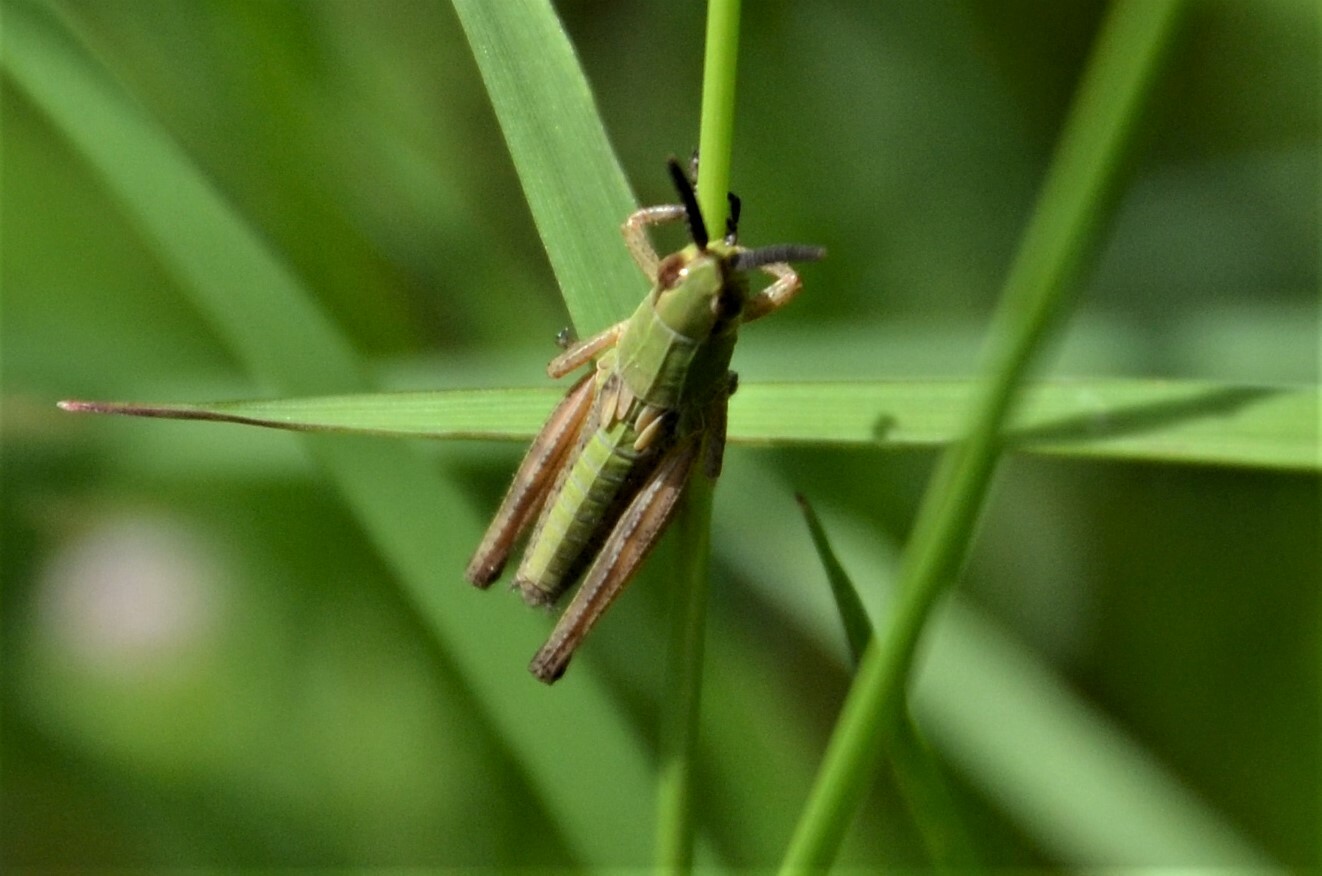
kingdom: Animalia
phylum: Arthropoda
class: Insecta
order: Orthoptera
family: Acrididae
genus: Pseudochorthippus
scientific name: Pseudochorthippus parallelus
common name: Meadow grasshopper
